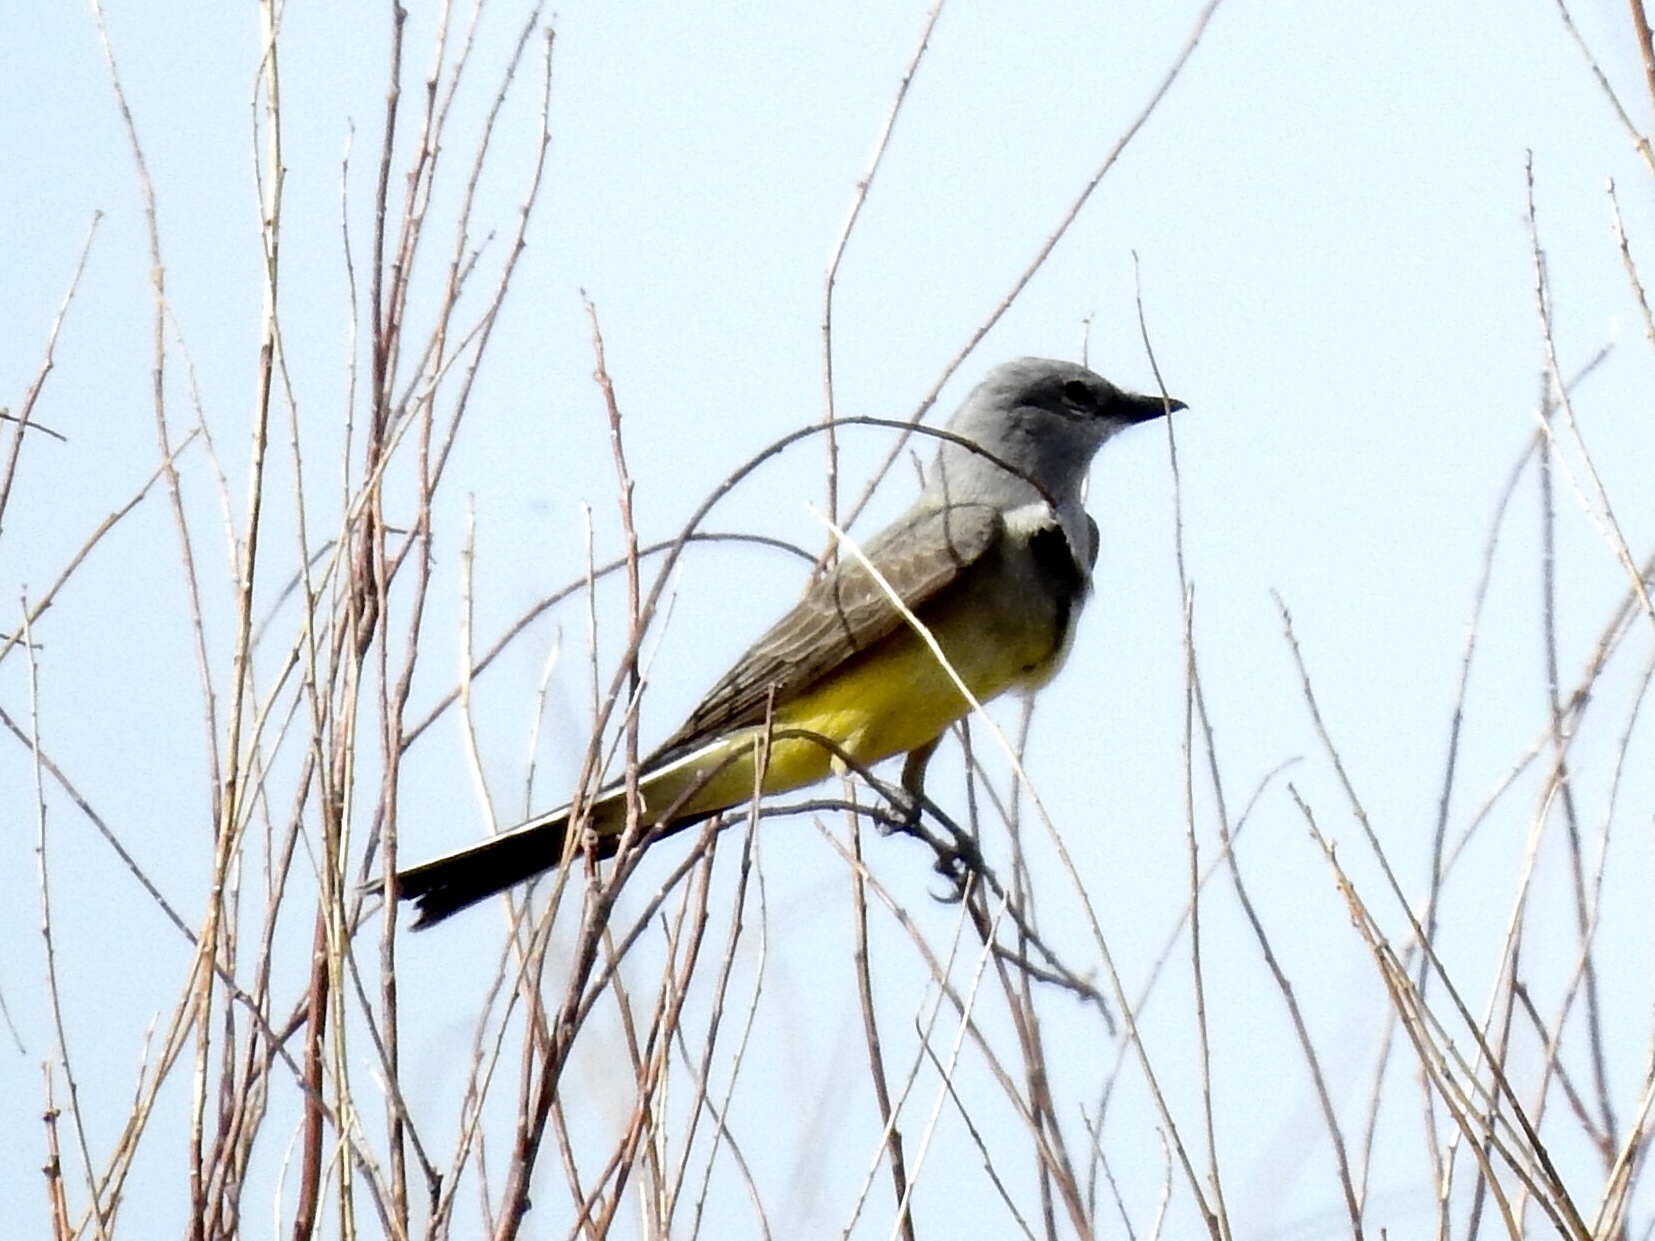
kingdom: Animalia
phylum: Chordata
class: Aves
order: Passeriformes
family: Tyrannidae
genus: Tyrannus
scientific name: Tyrannus verticalis
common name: Western kingbird
